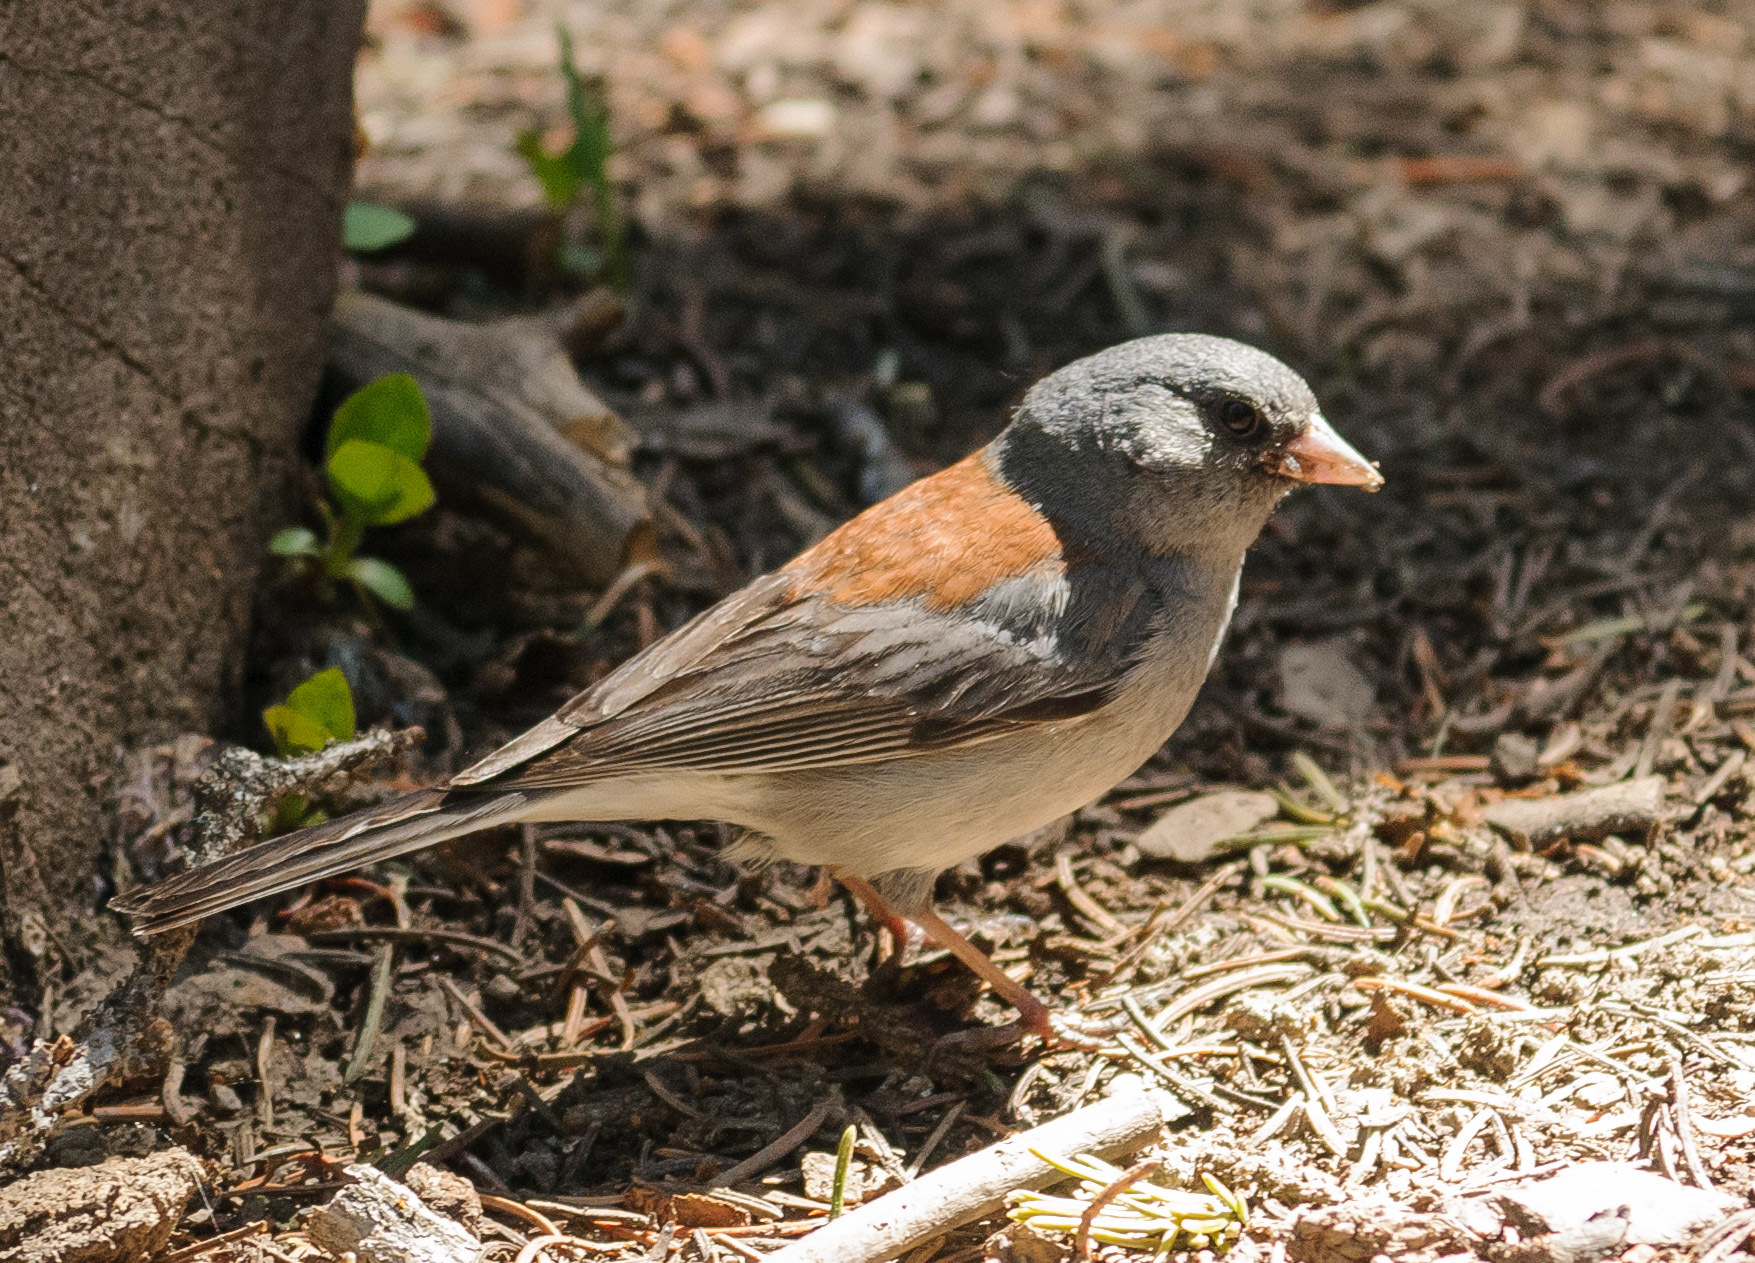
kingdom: Animalia
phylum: Chordata
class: Aves
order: Passeriformes
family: Passerellidae
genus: Junco
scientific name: Junco hyemalis
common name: Dark-eyed junco
